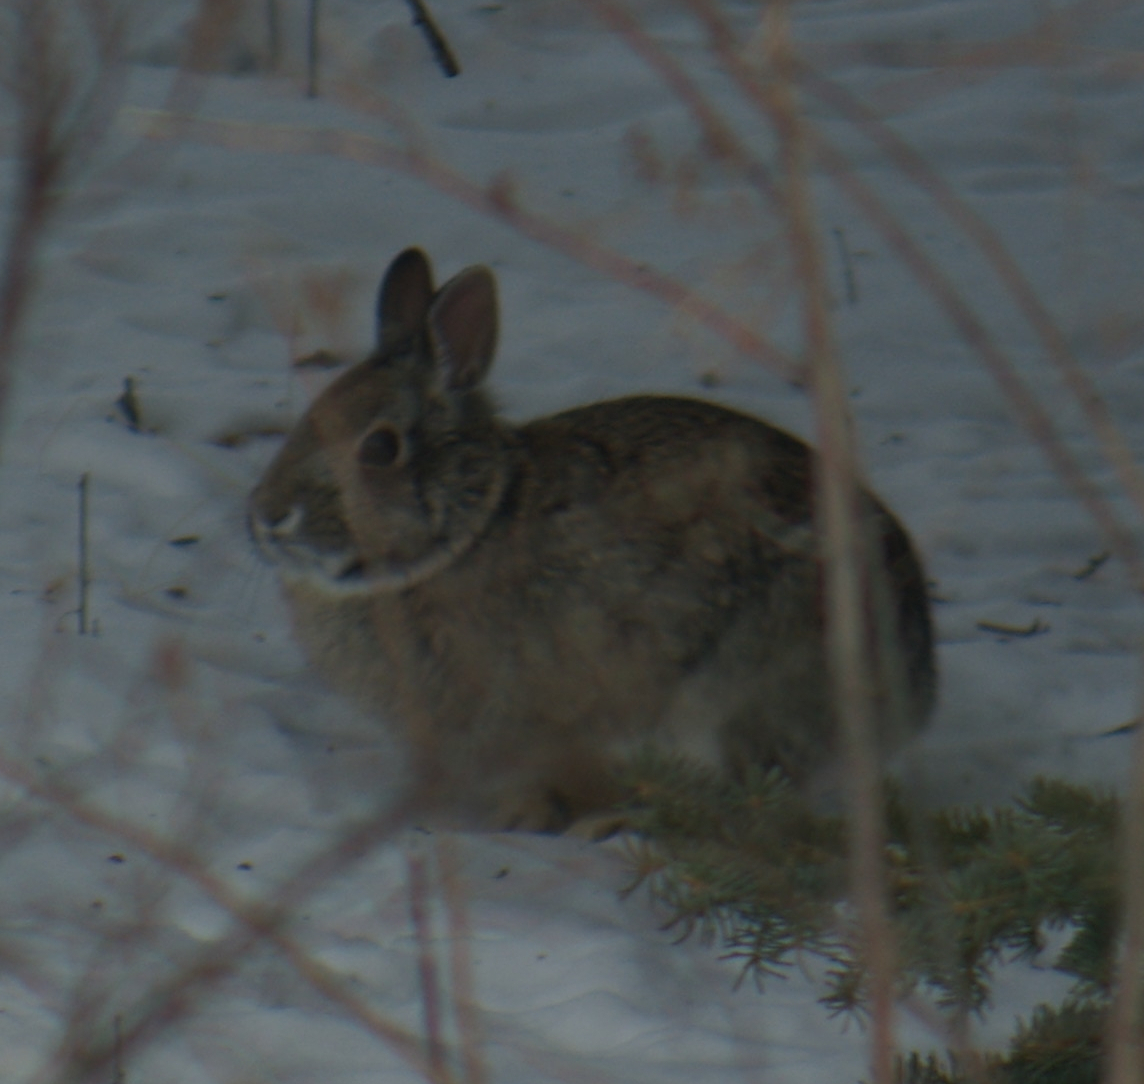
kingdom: Animalia
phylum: Chordata
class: Mammalia
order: Lagomorpha
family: Leporidae
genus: Sylvilagus
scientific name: Sylvilagus floridanus
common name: Eastern cottontail
